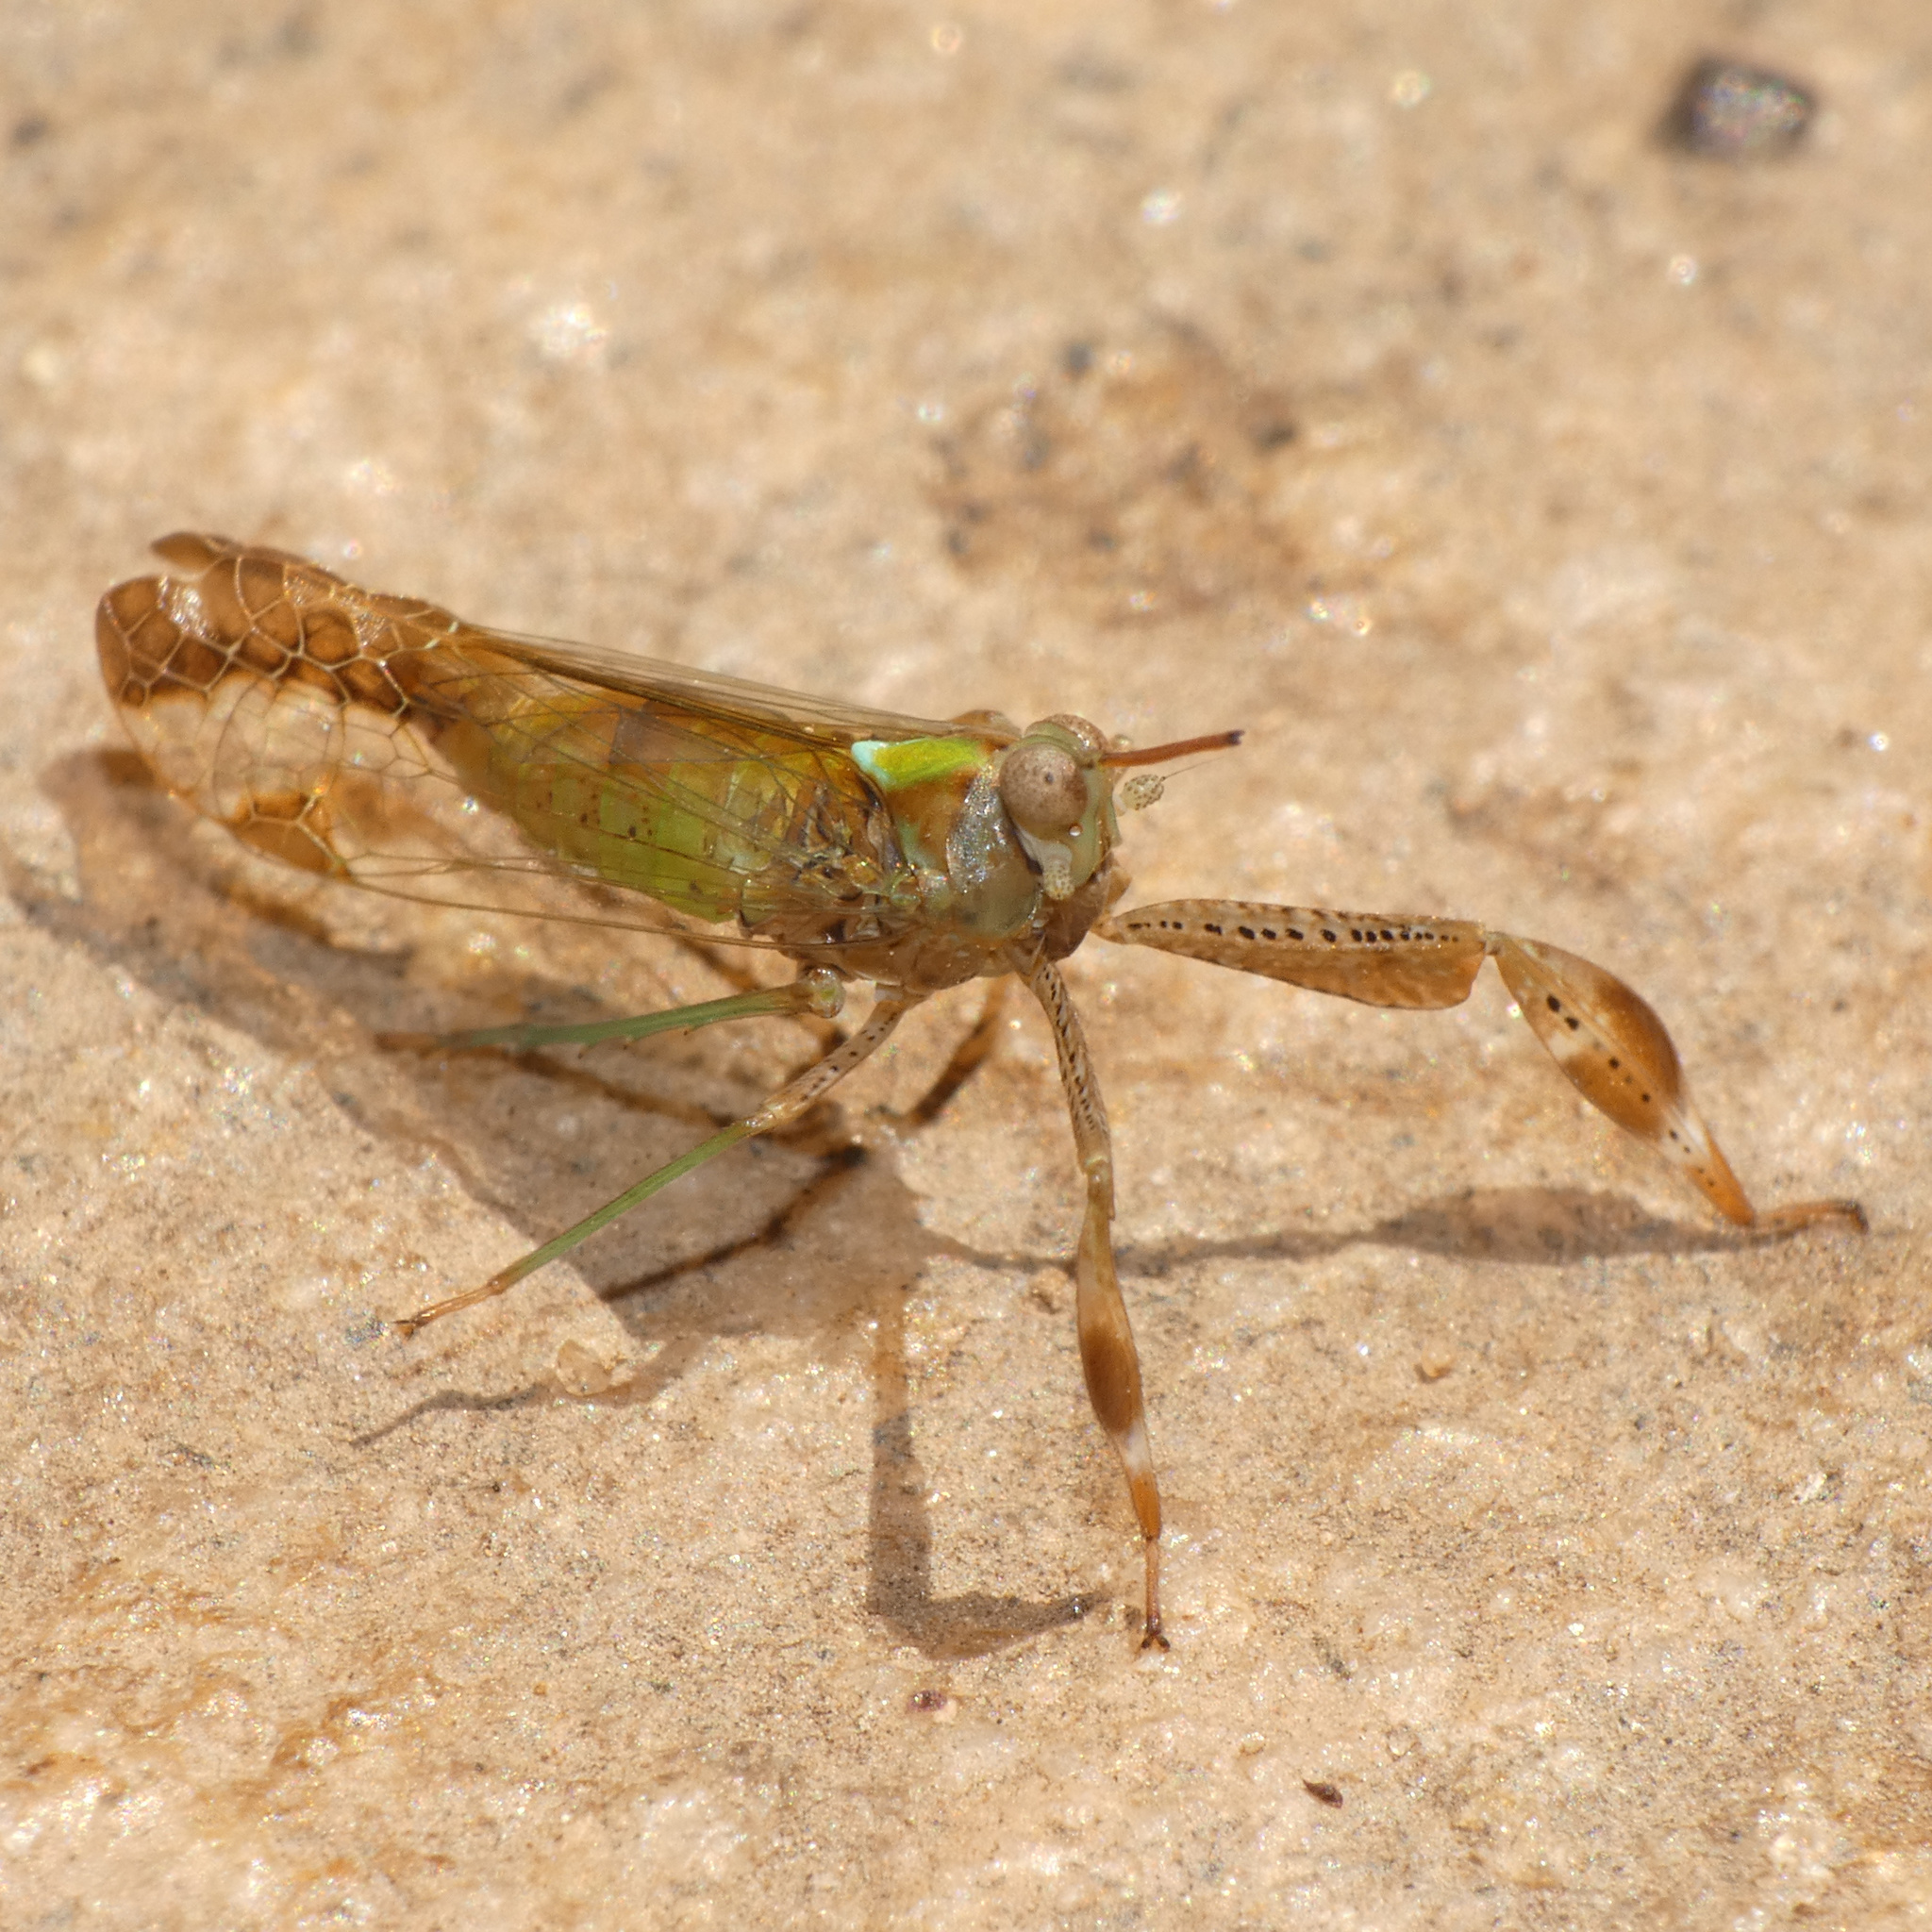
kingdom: Animalia
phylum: Arthropoda
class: Insecta
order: Hemiptera
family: Dictyopharidae
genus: Raphiophora
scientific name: Raphiophora intricata
